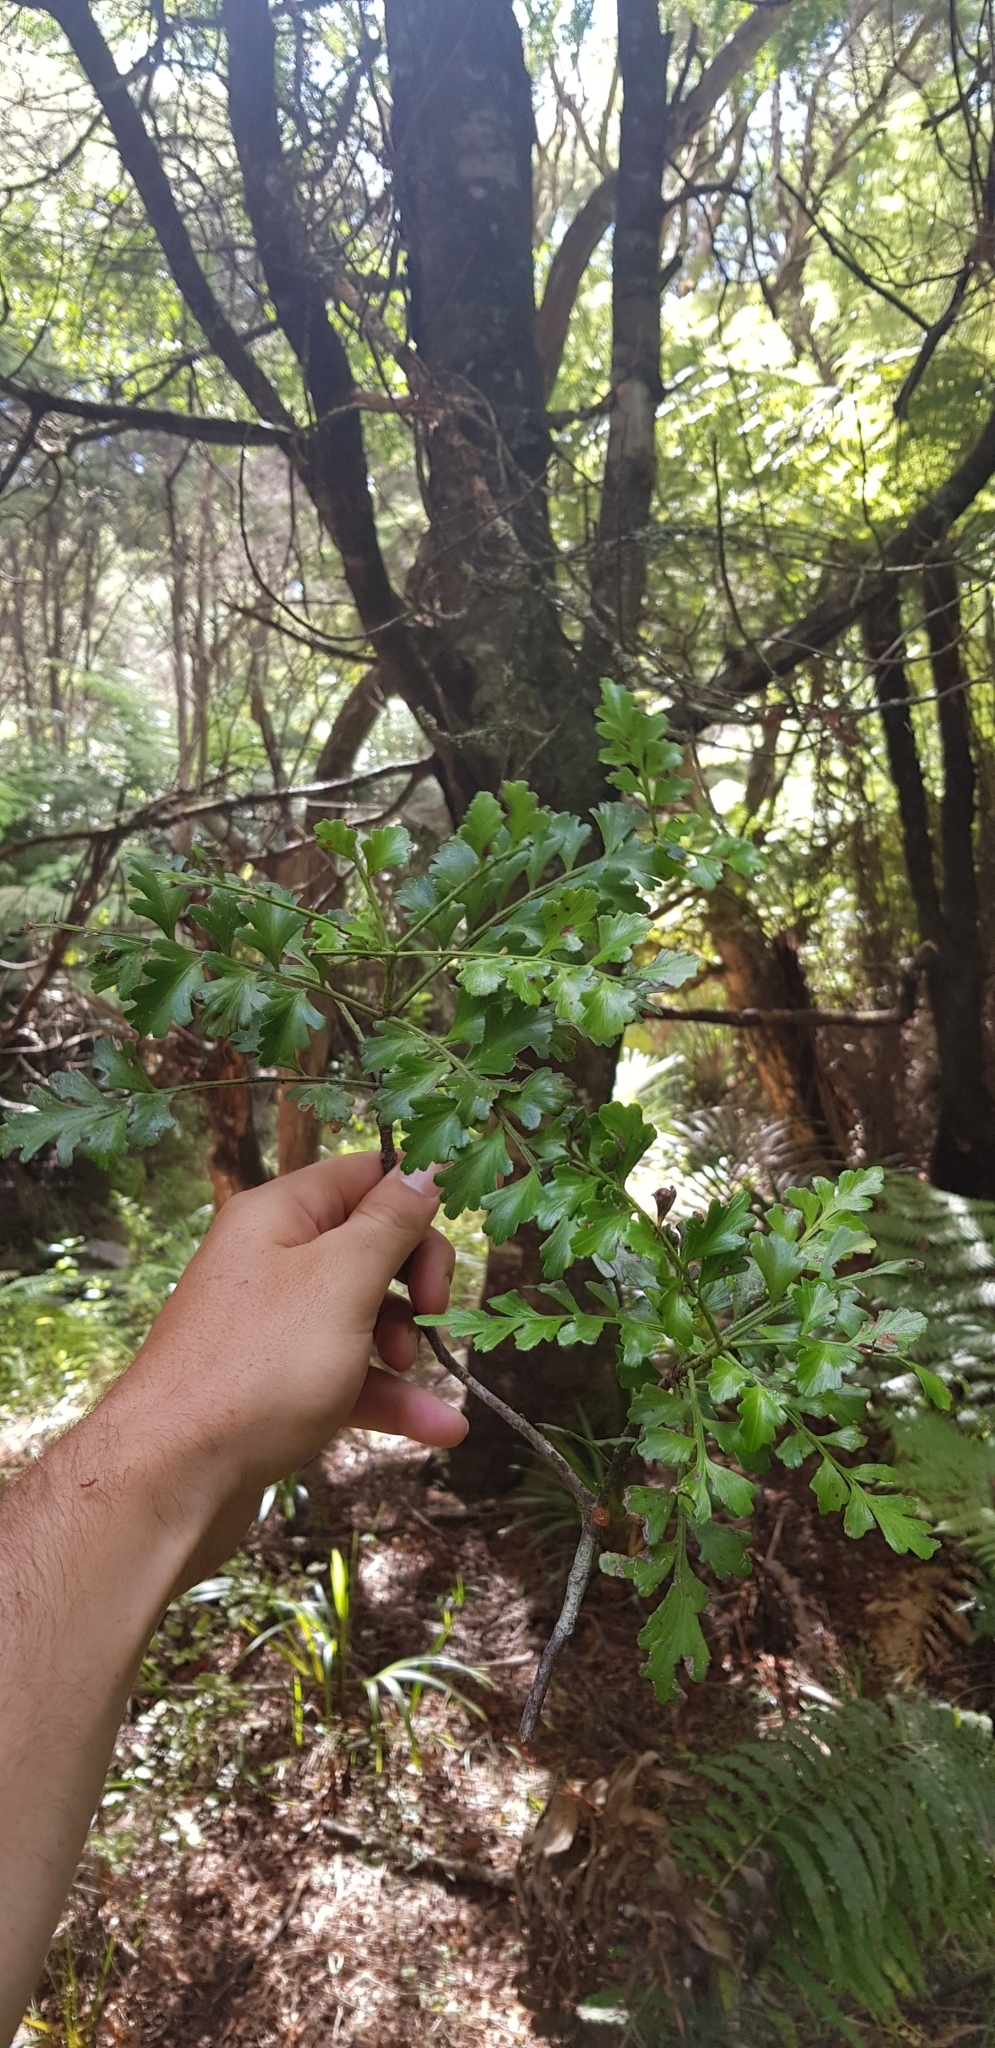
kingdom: Plantae
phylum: Tracheophyta
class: Pinopsida
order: Pinales
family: Phyllocladaceae
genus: Phyllocladus
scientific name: Phyllocladus trichomanoides
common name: Celery pine
